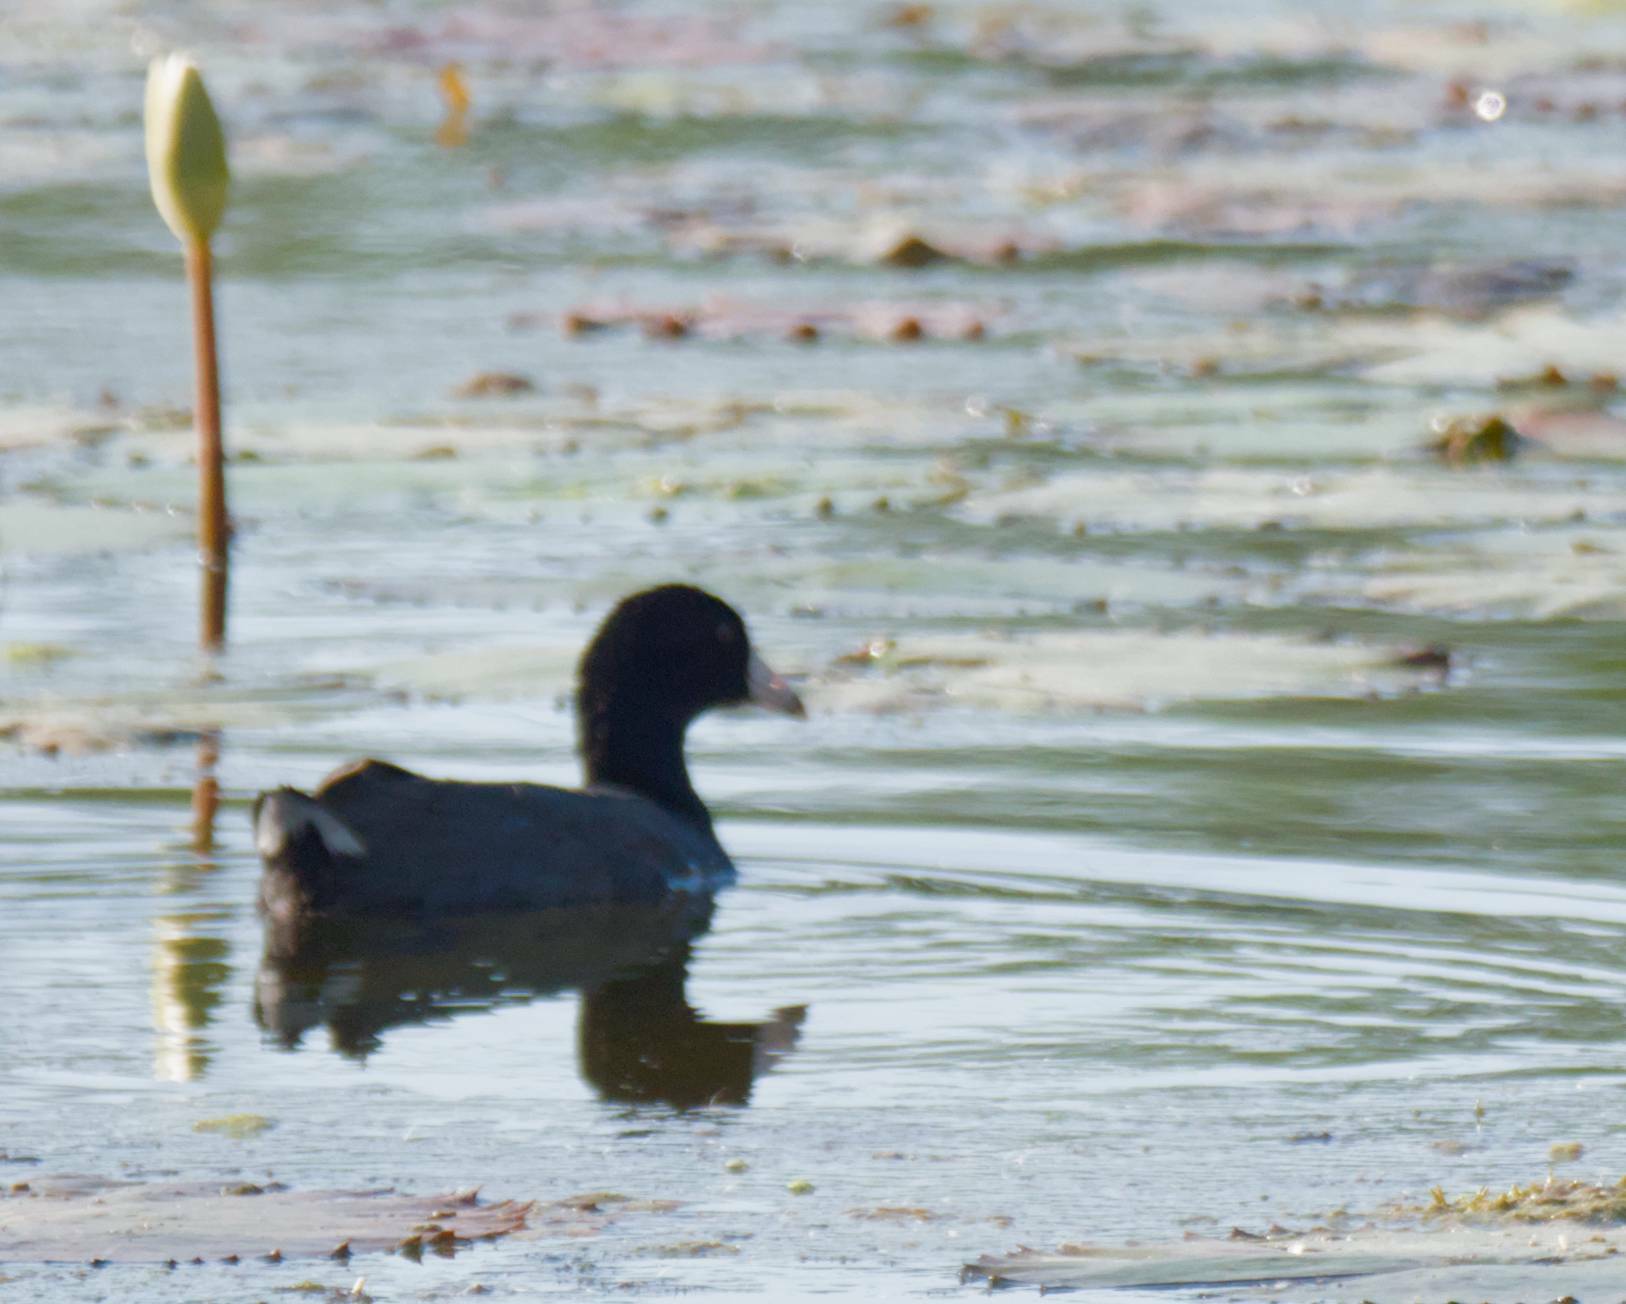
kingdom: Animalia
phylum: Chordata
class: Aves
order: Gruiformes
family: Rallidae
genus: Fulica
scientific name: Fulica americana
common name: American coot
